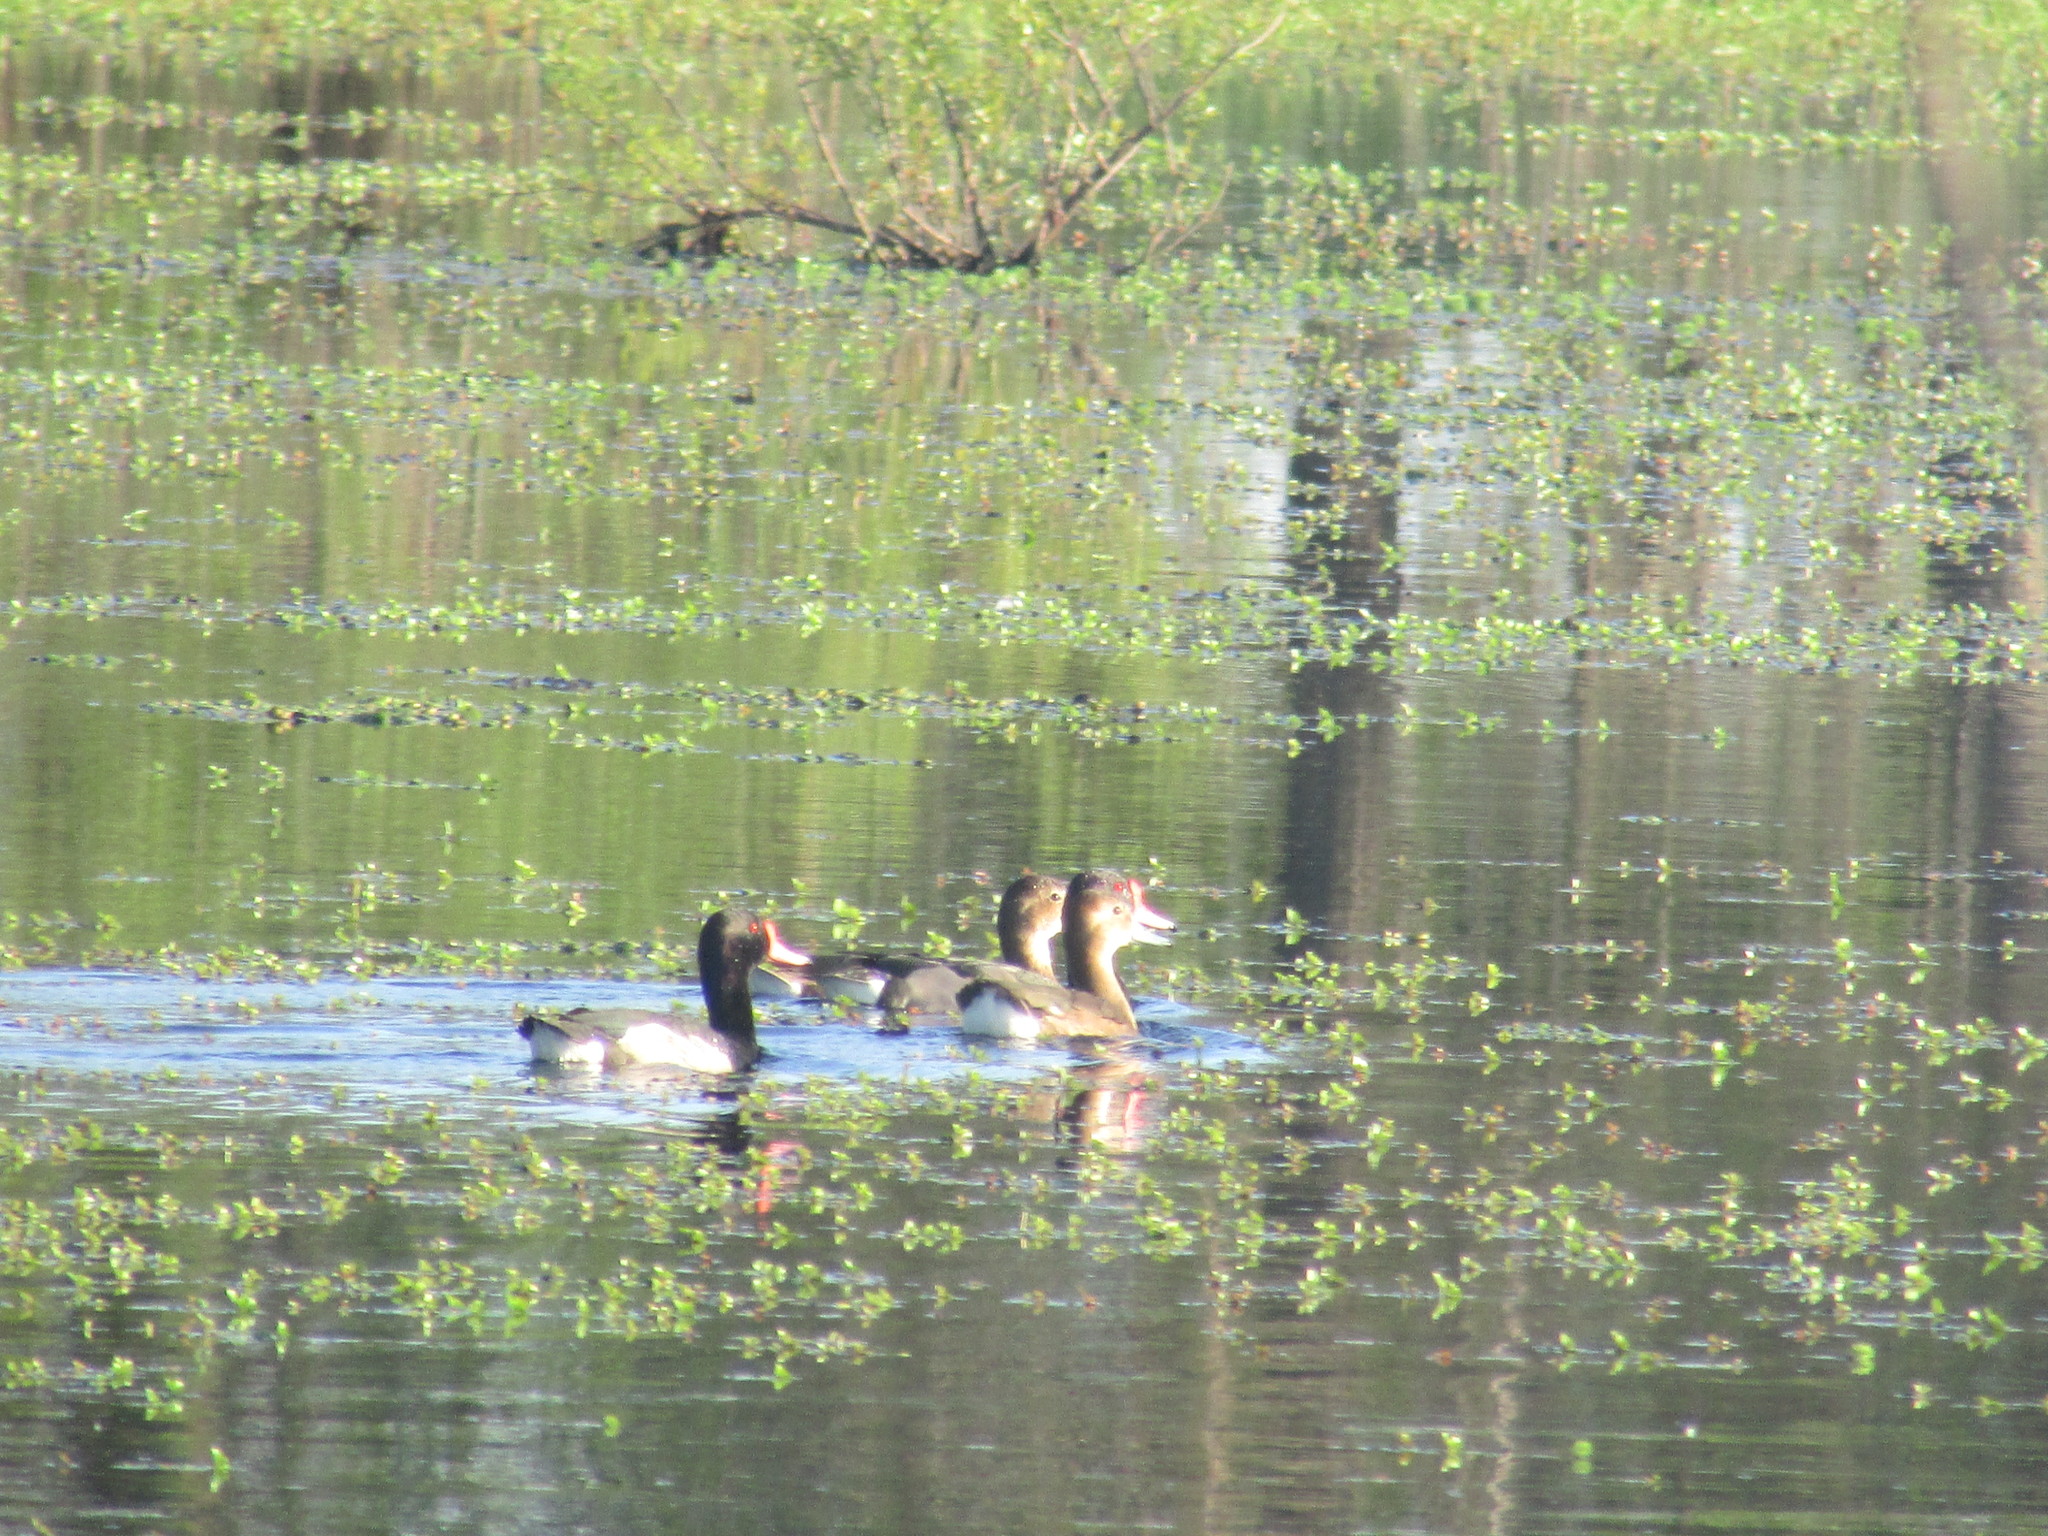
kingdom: Animalia
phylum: Chordata
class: Aves
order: Anseriformes
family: Anatidae
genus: Netta
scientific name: Netta peposaca
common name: Rosy-billed pochard
